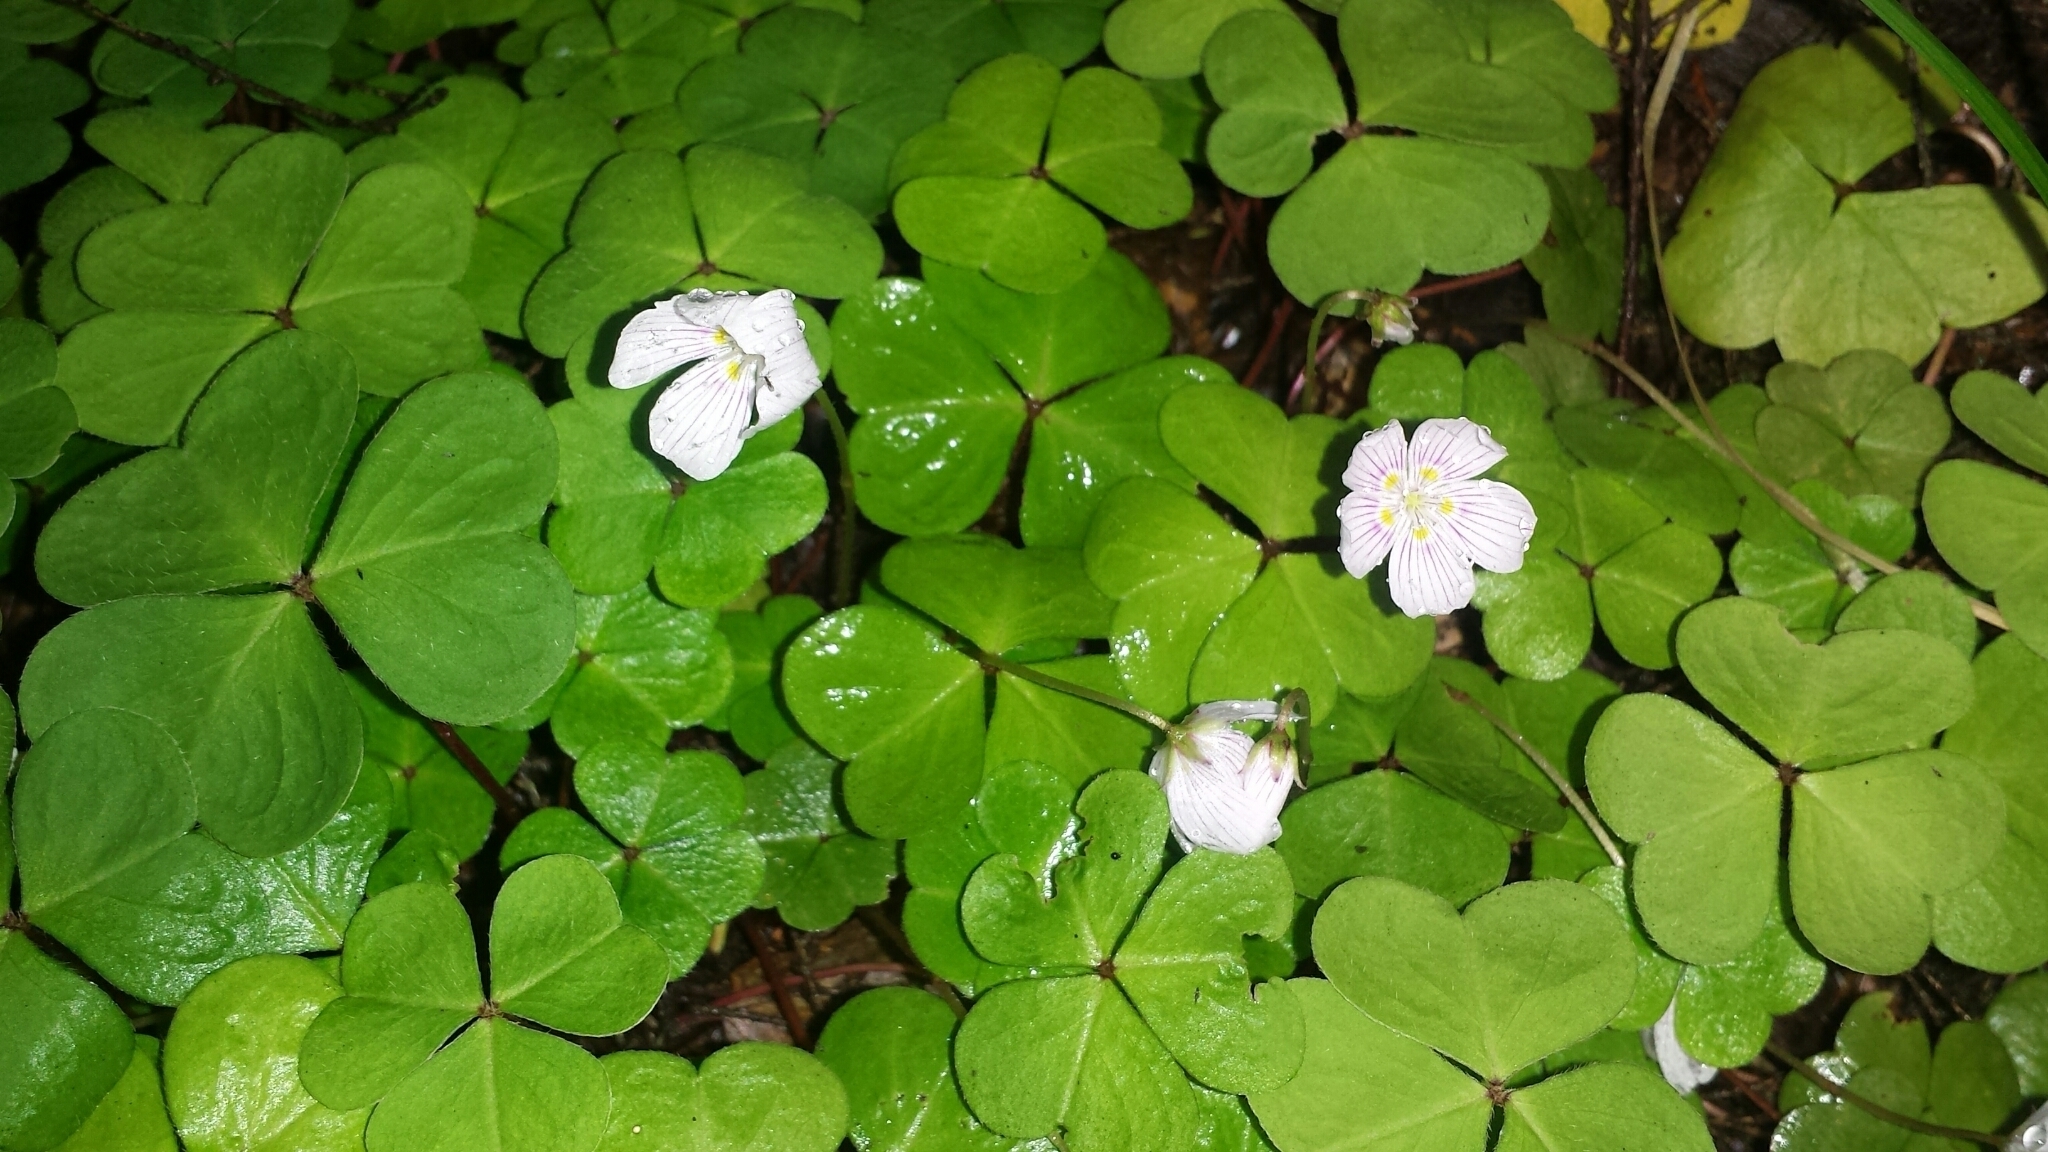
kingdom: Plantae
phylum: Tracheophyta
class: Magnoliopsida
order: Oxalidales
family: Oxalidaceae
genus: Oxalis
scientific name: Oxalis montana
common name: American wood-sorrel
